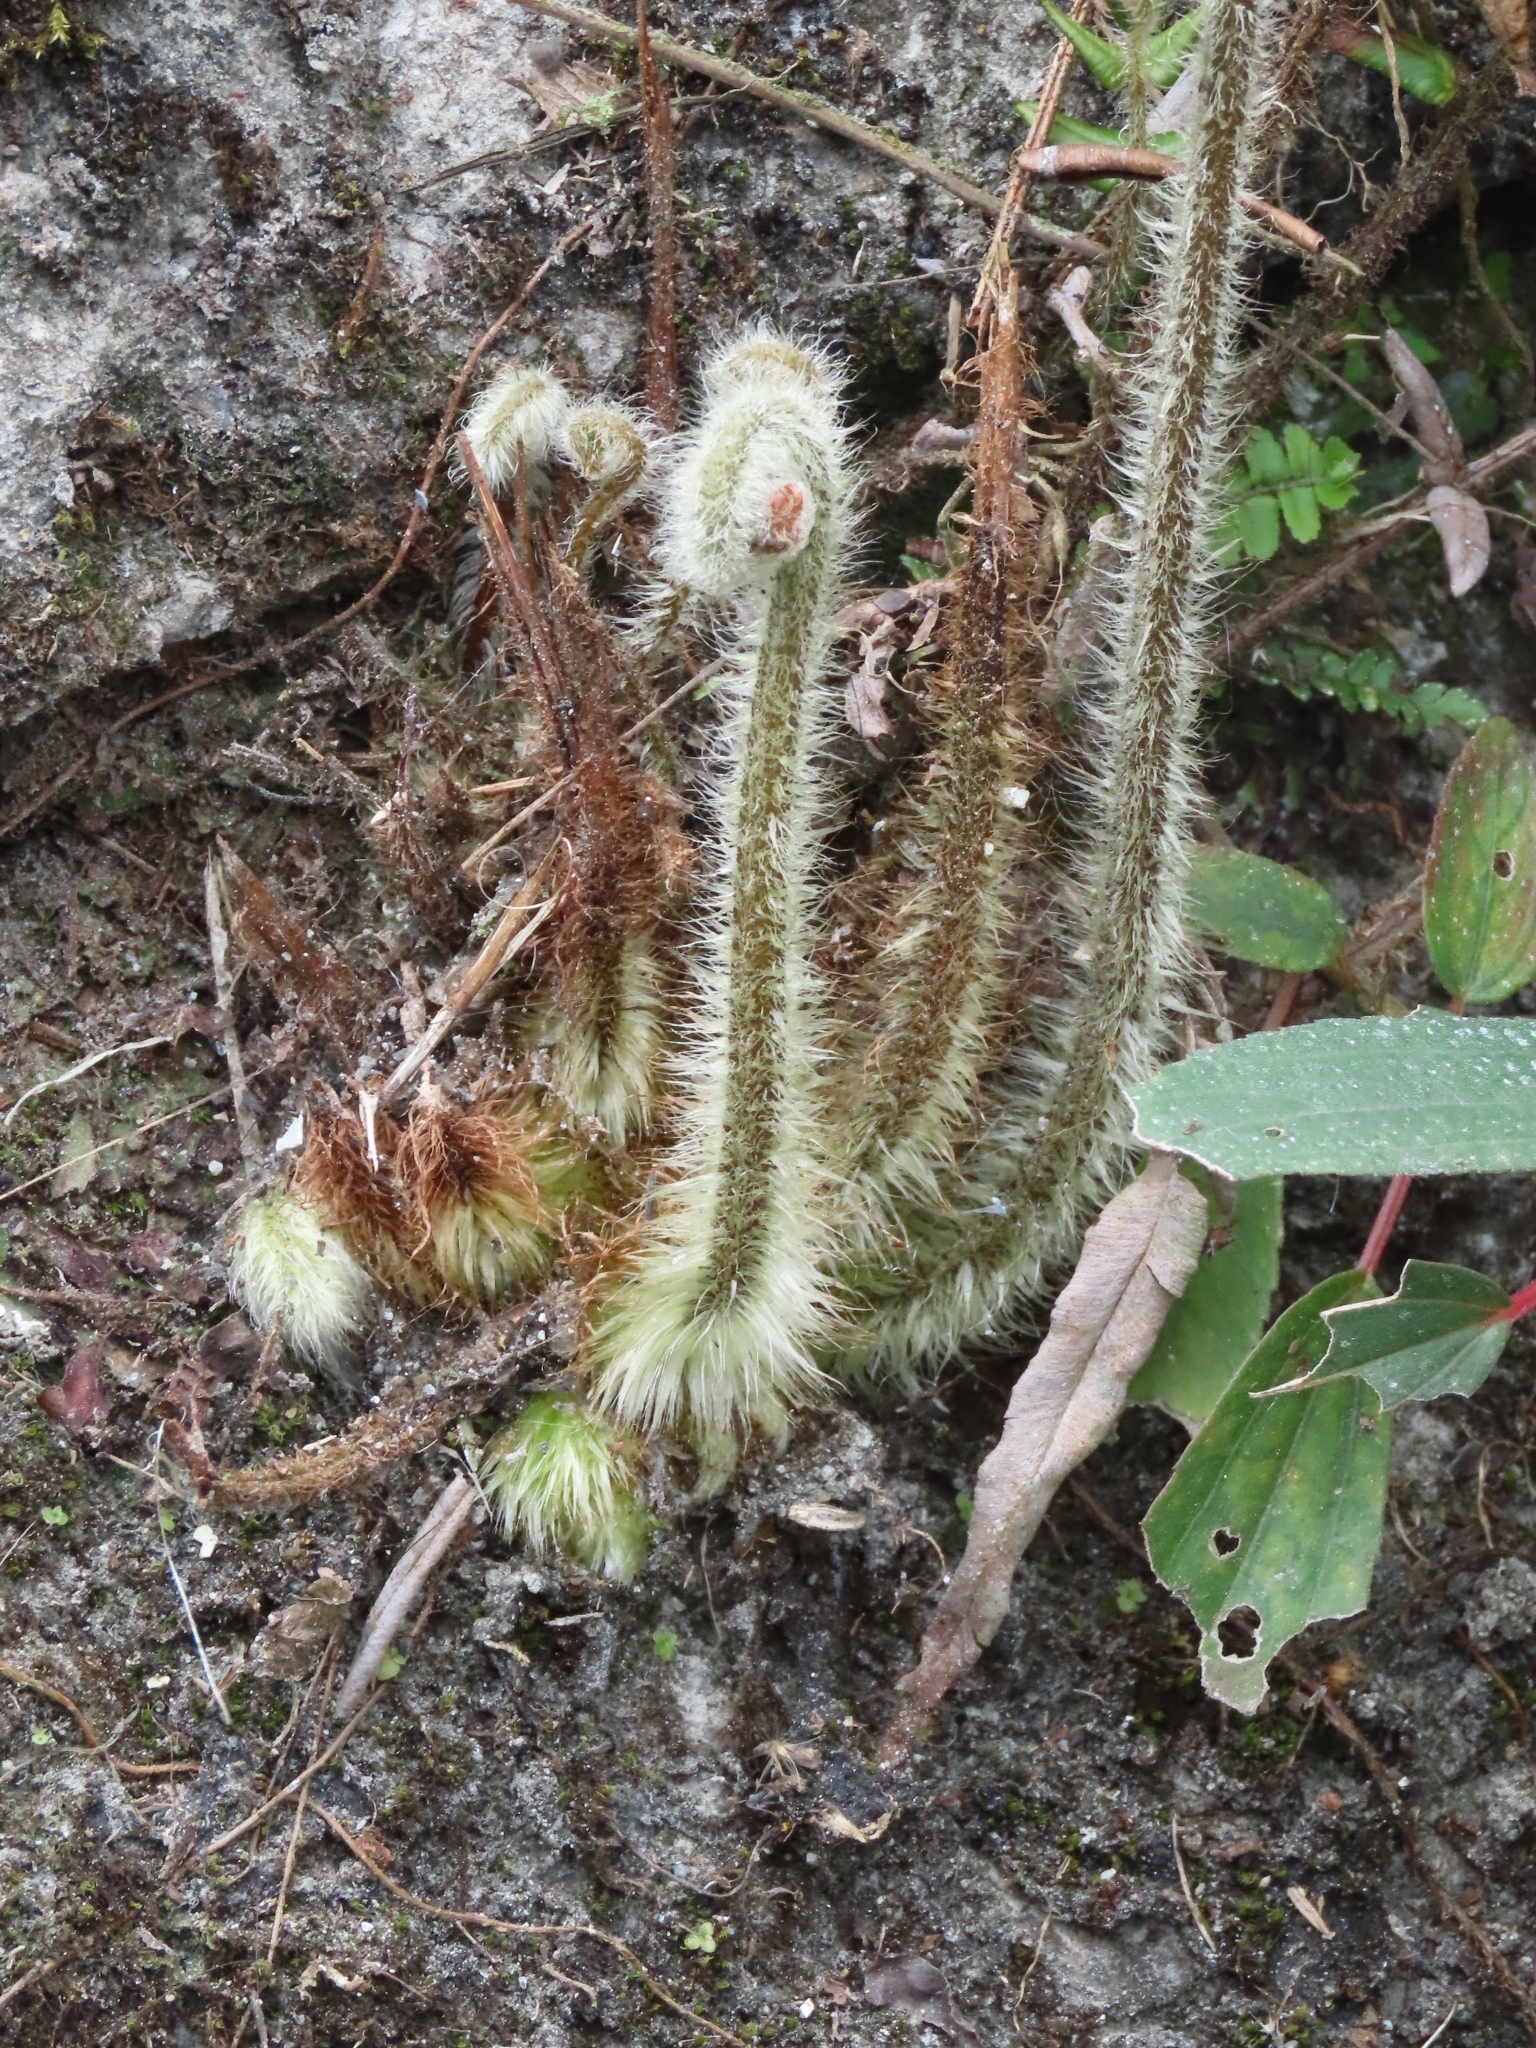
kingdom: Plantae
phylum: Tracheophyta
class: Polypodiopsida
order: Polypodiales
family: Pteridaceae
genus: Pteris
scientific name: Pteris vittata
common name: Ladder brake
